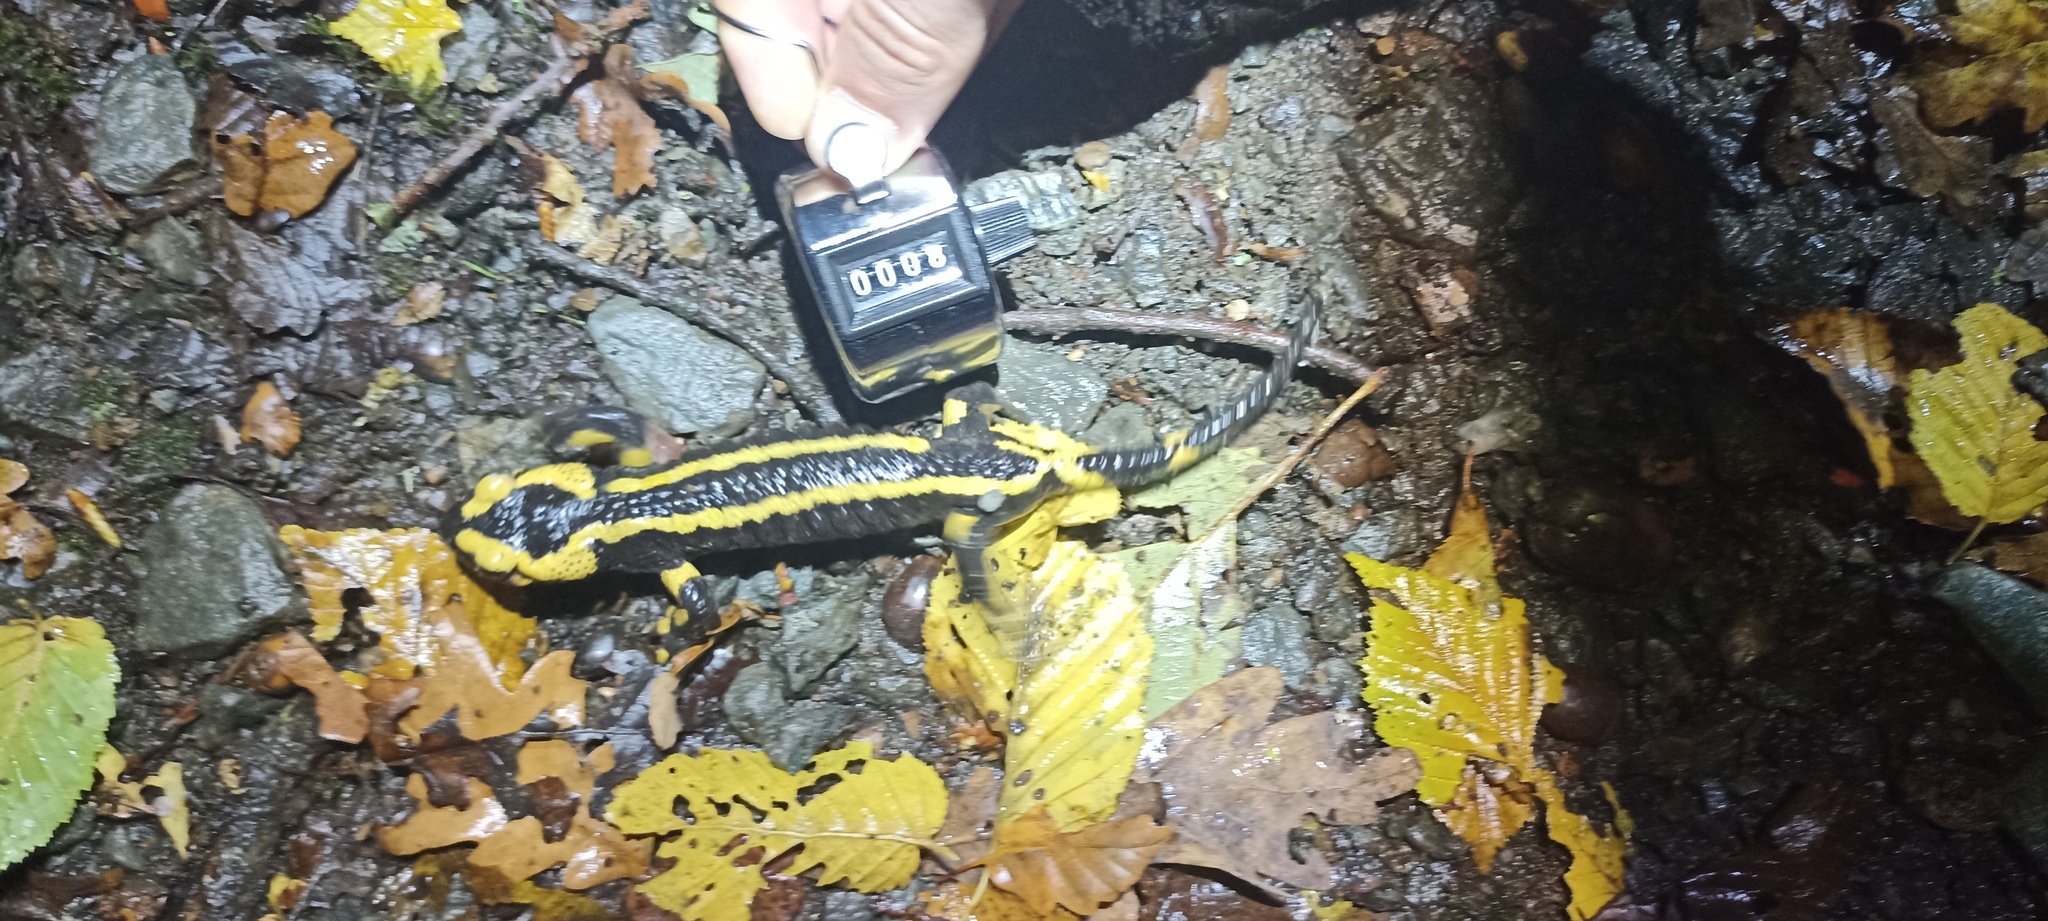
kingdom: Animalia
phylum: Chordata
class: Amphibia
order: Caudata
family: Salamandridae
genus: Salamandra
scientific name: Salamandra salamandra
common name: Fire salamander
